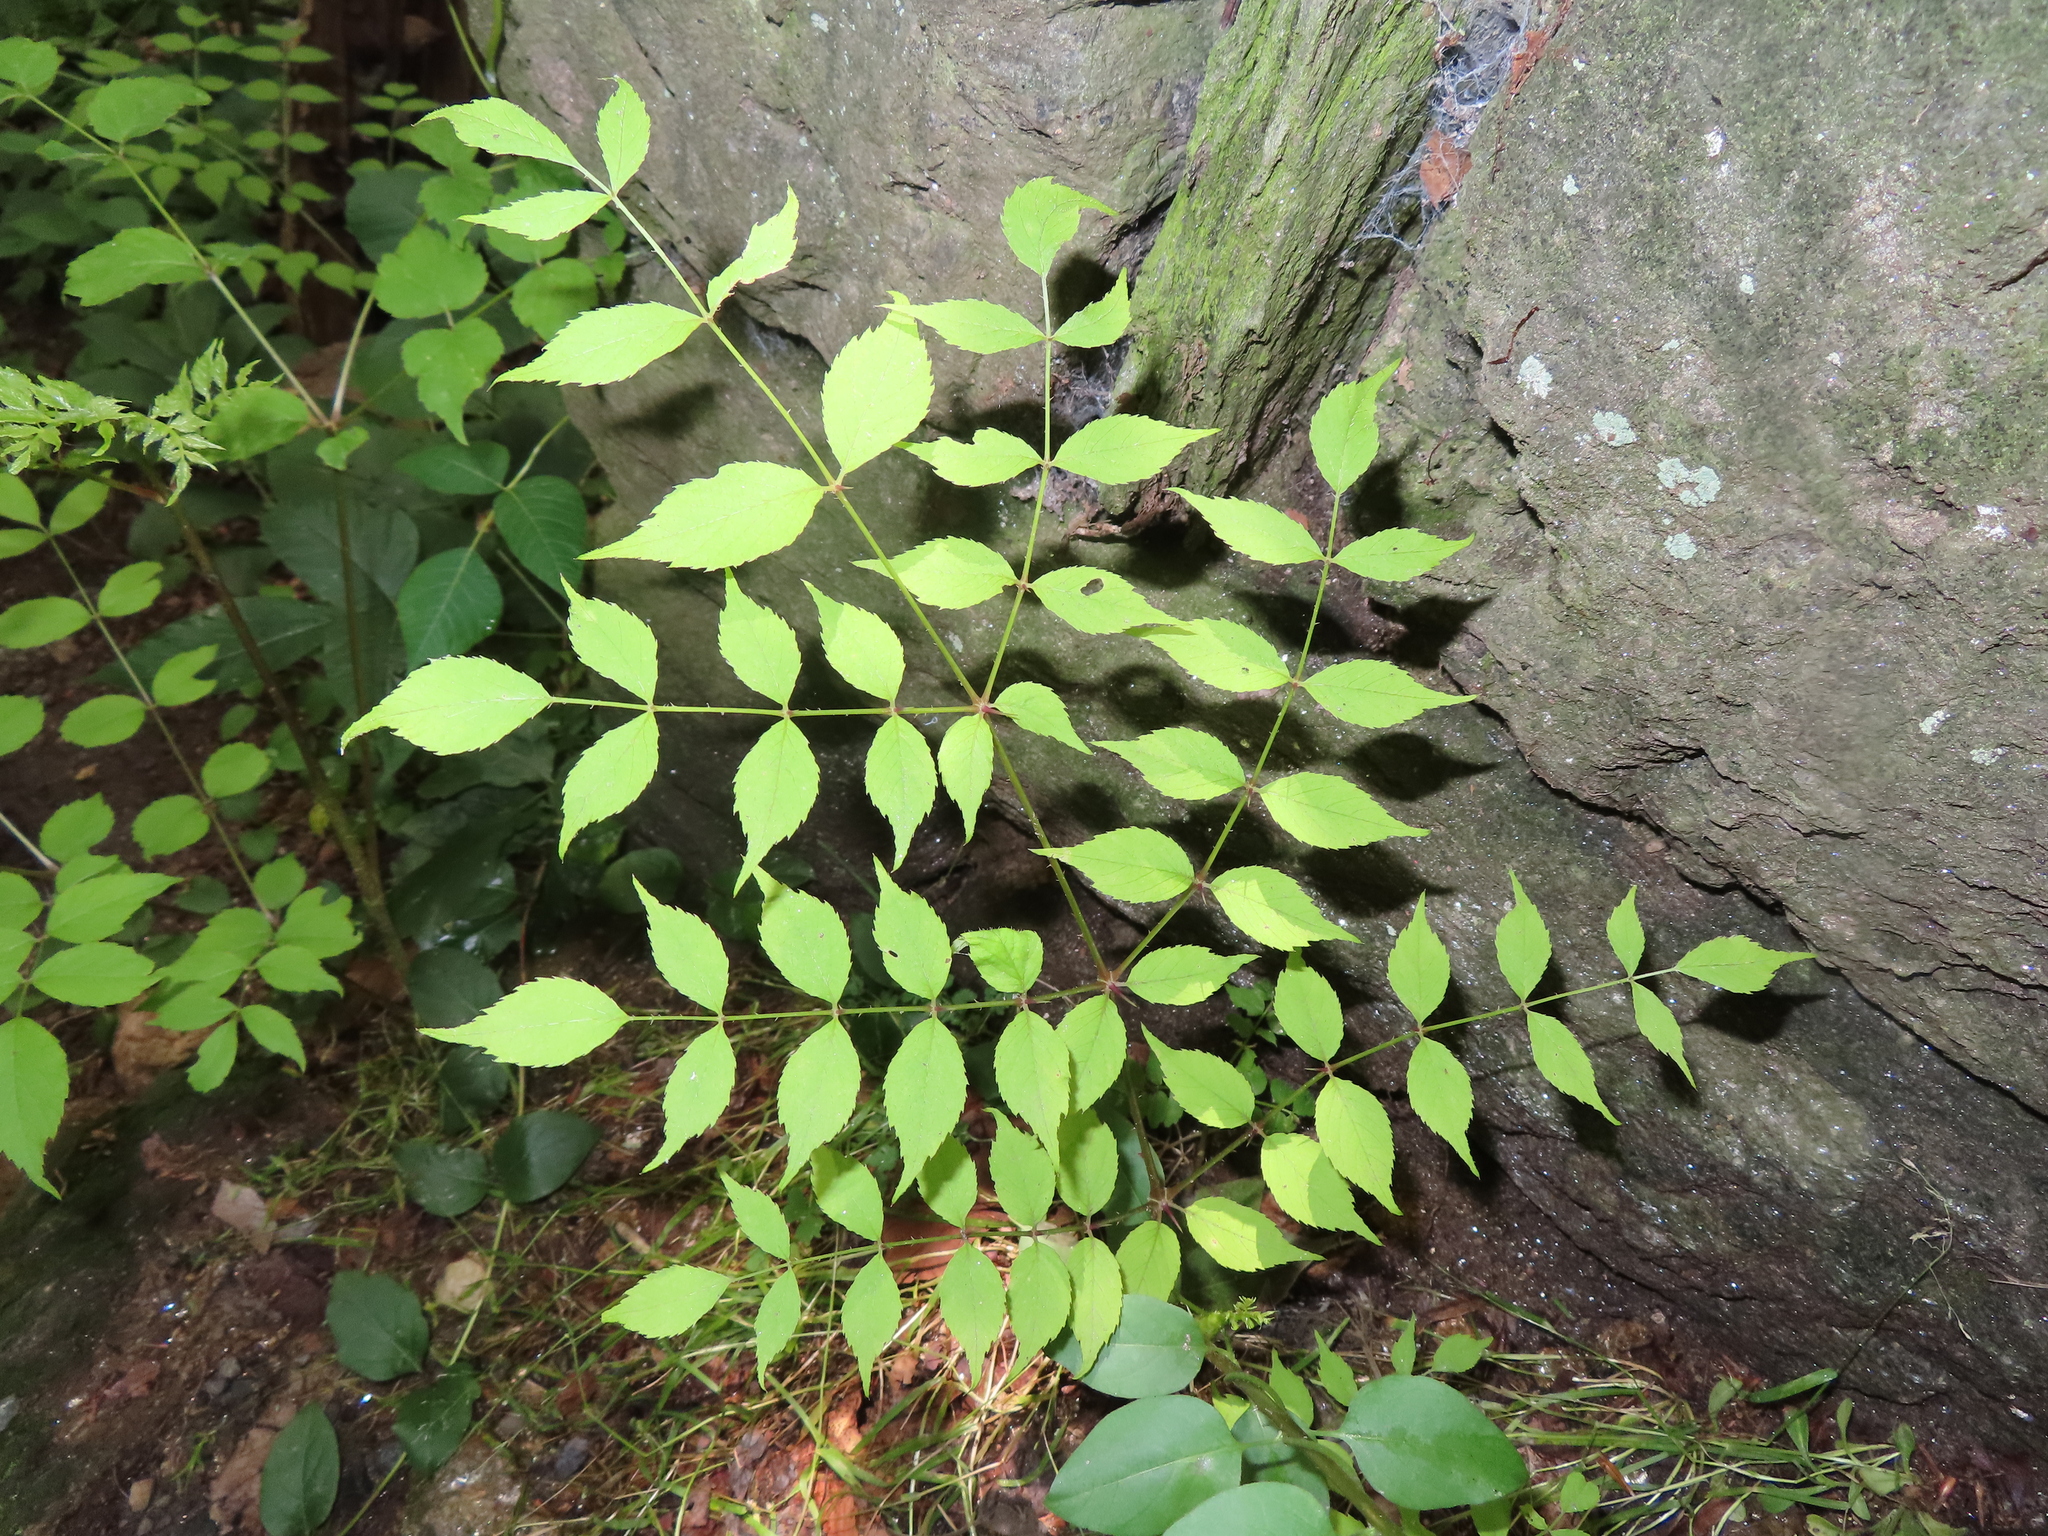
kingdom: Plantae
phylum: Tracheophyta
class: Magnoliopsida
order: Apiales
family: Araliaceae
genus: Aralia
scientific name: Aralia elata
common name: Japanese angelica-tree
